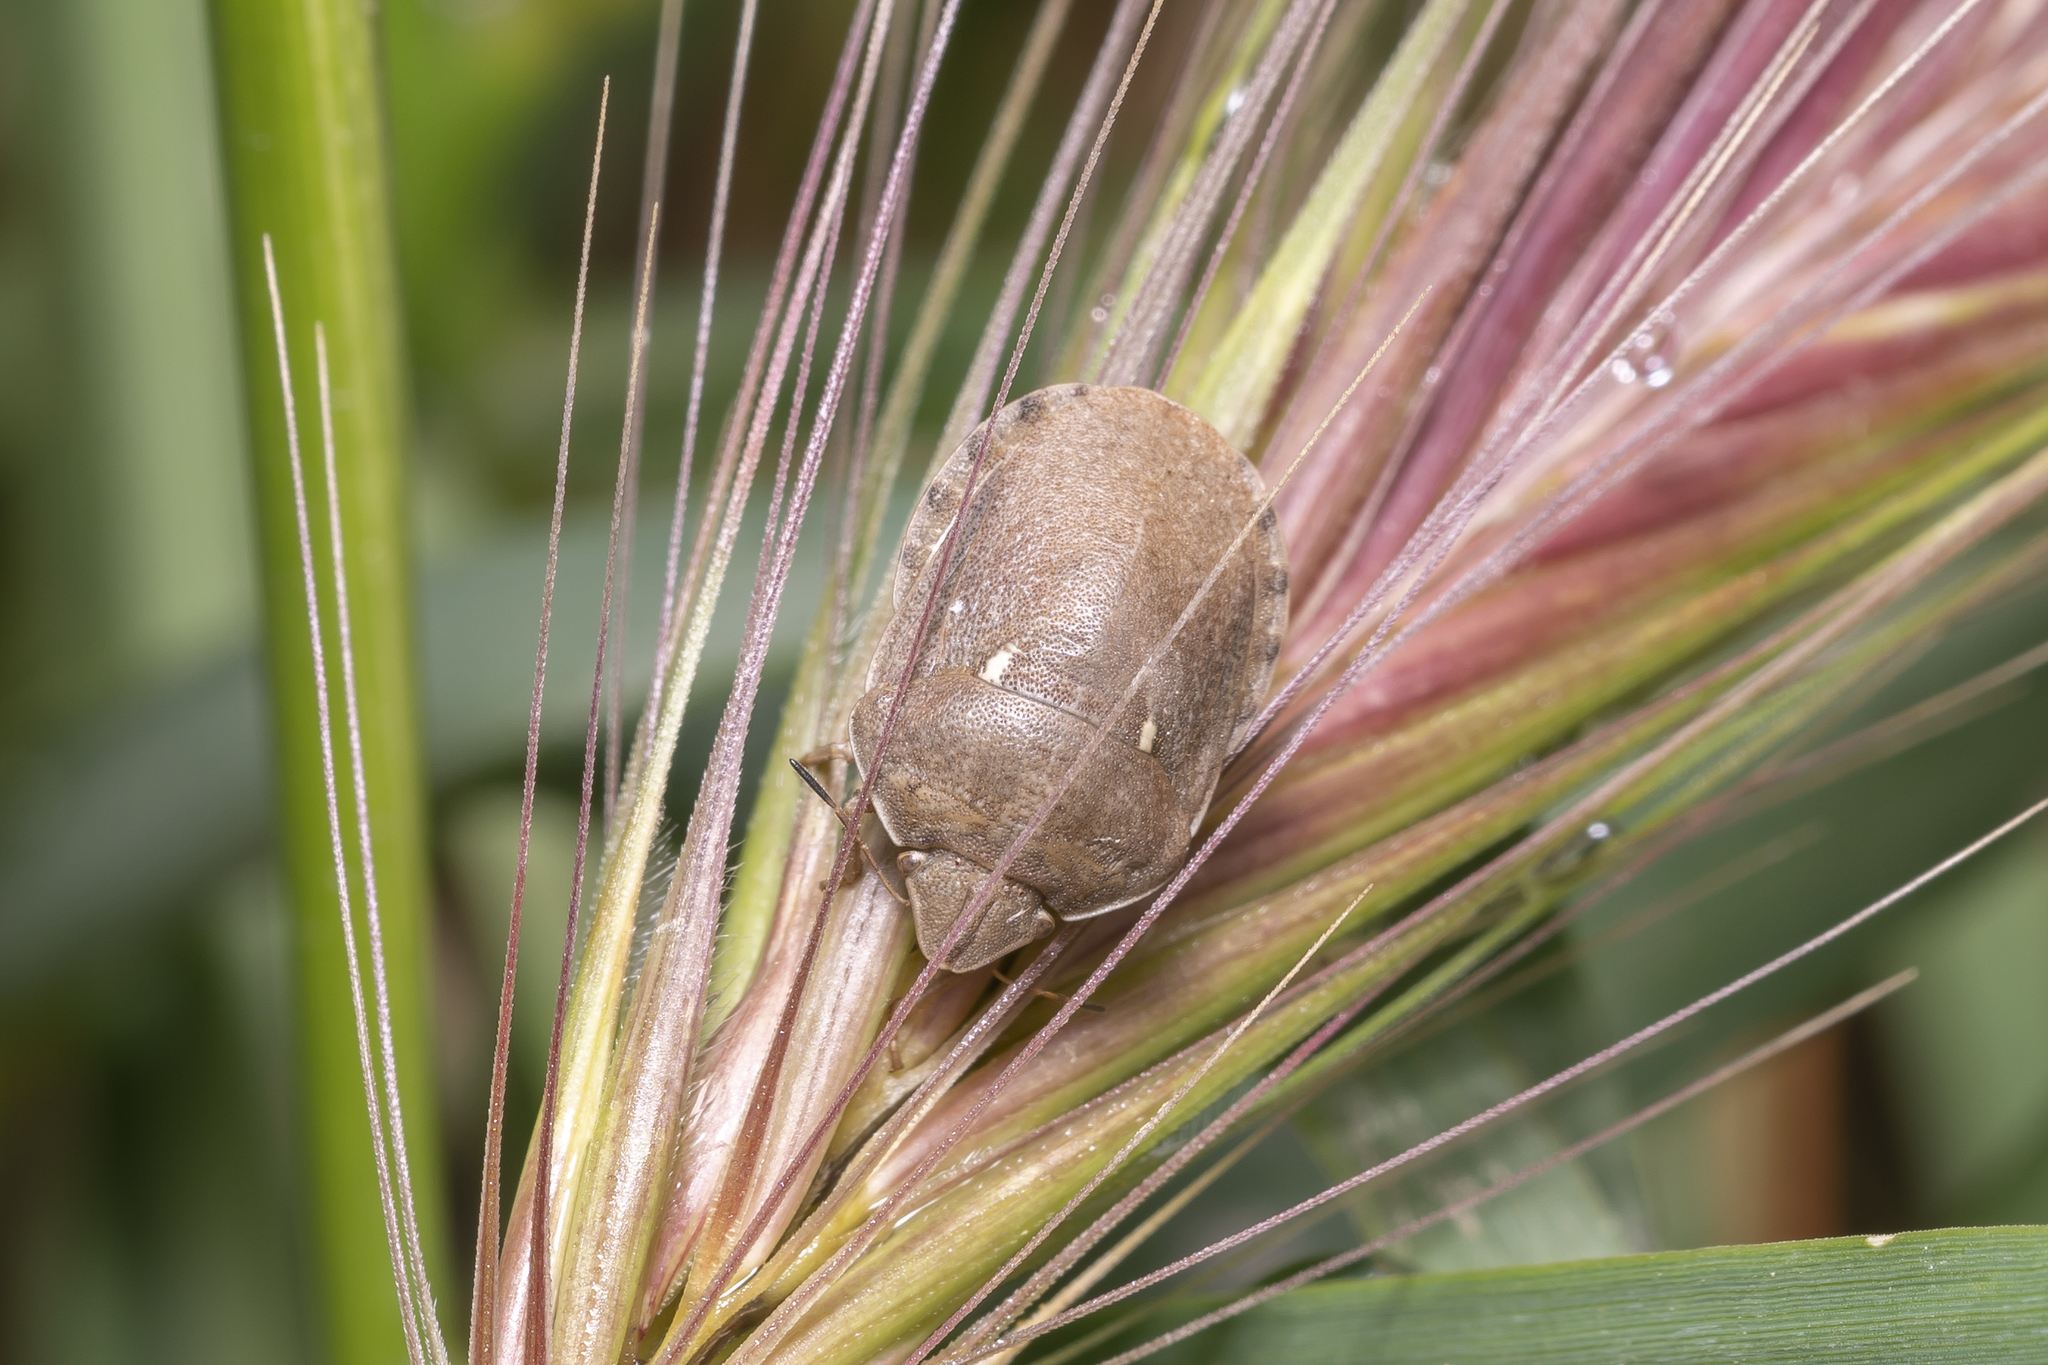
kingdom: Animalia
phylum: Arthropoda
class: Insecta
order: Hemiptera
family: Scutelleridae
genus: Eurygaster
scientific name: Eurygaster integriceps
